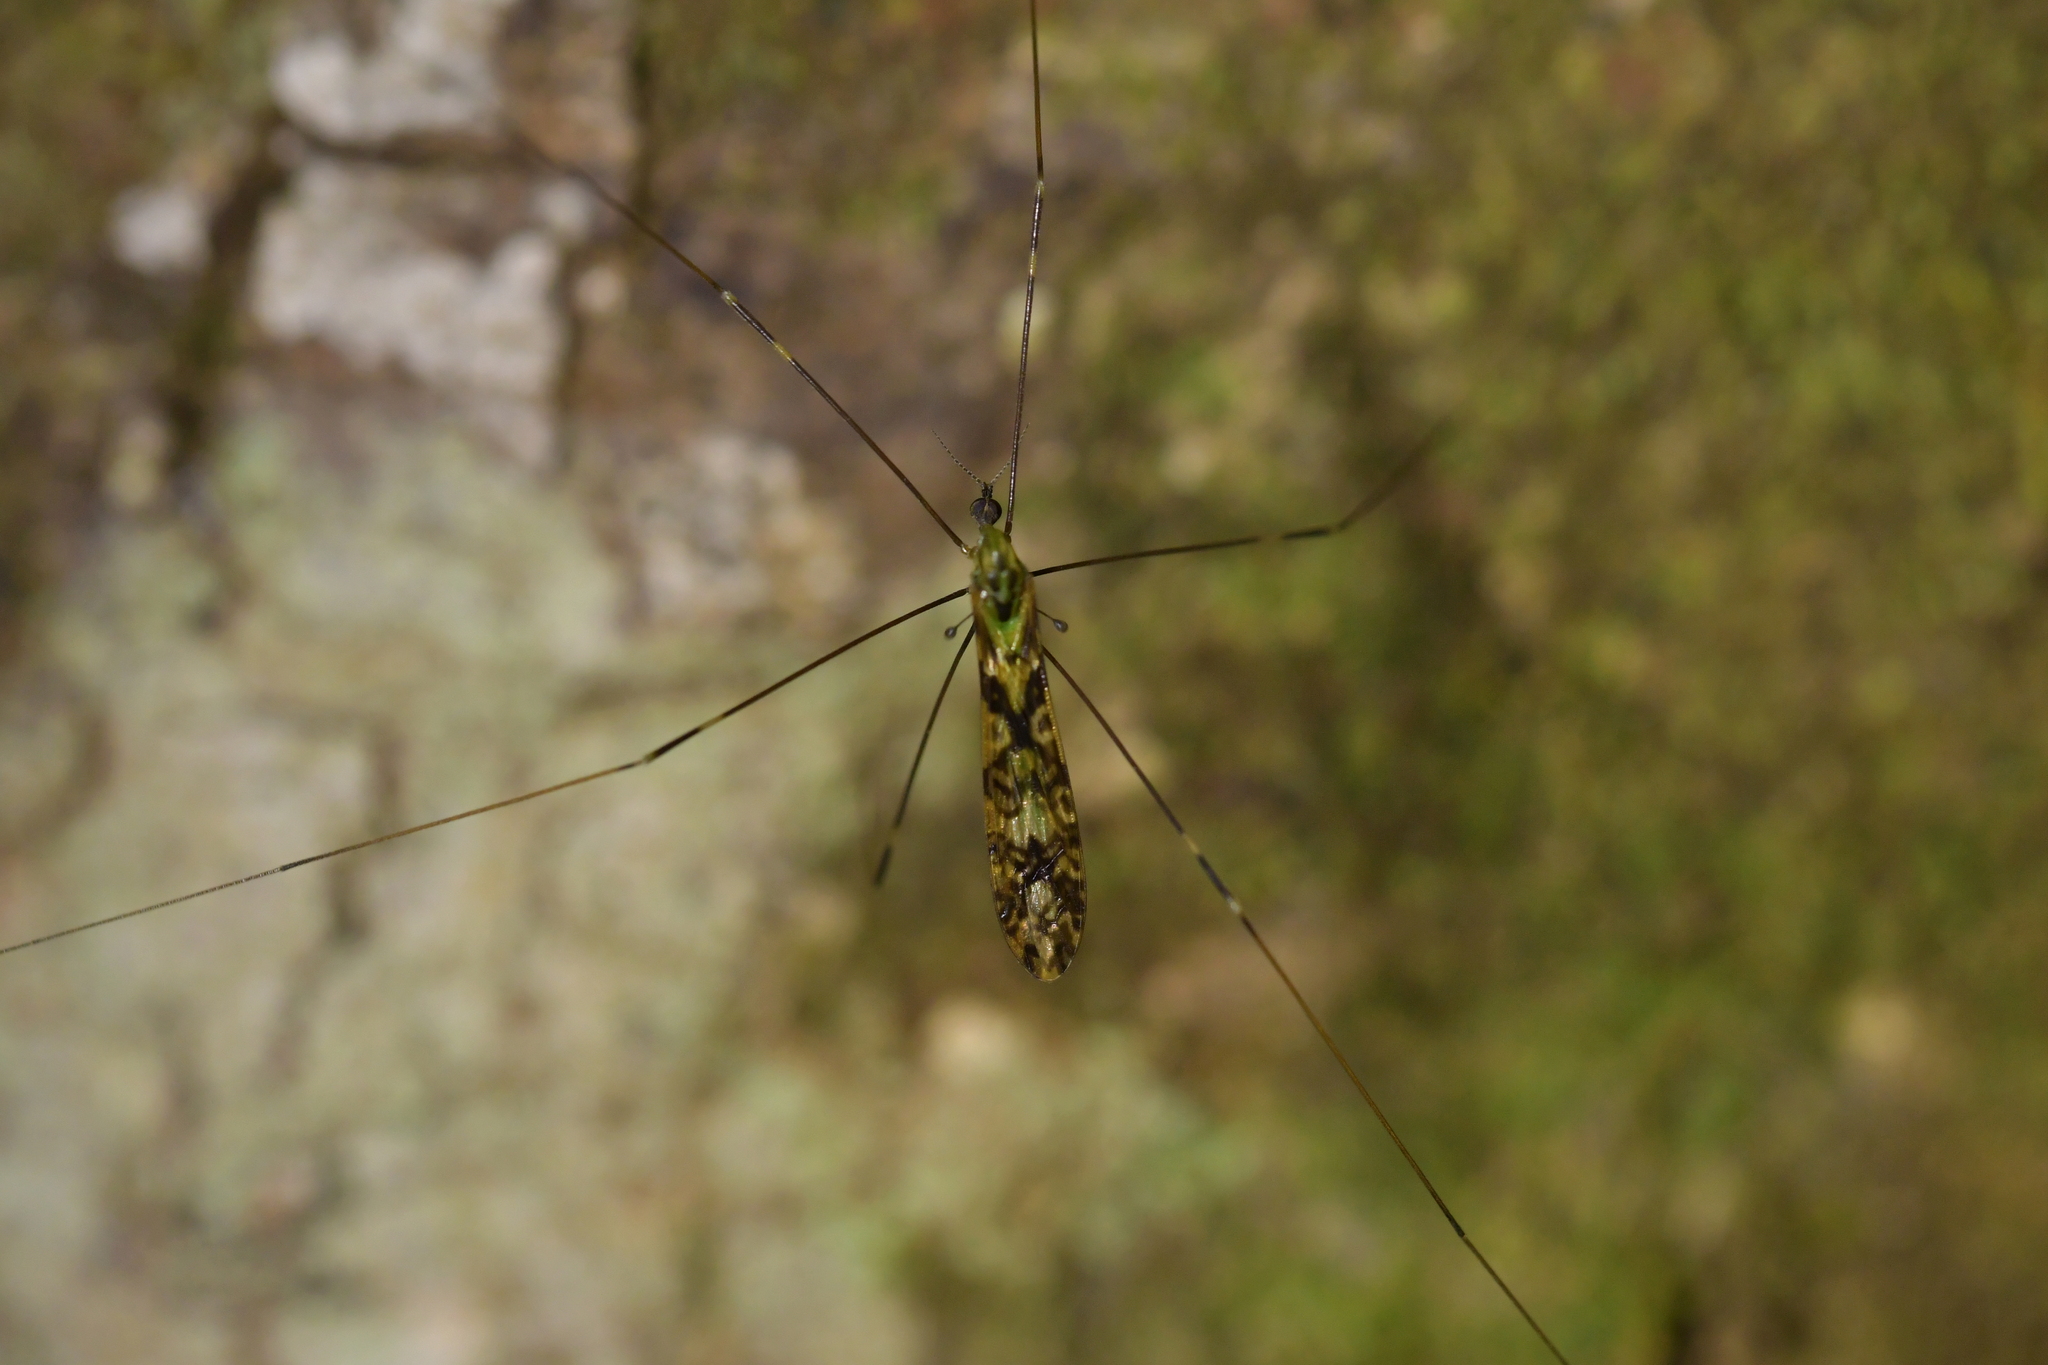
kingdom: Animalia
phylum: Arthropoda
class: Insecta
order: Diptera
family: Limoniidae
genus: Discobola
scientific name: Discobola dohrni
